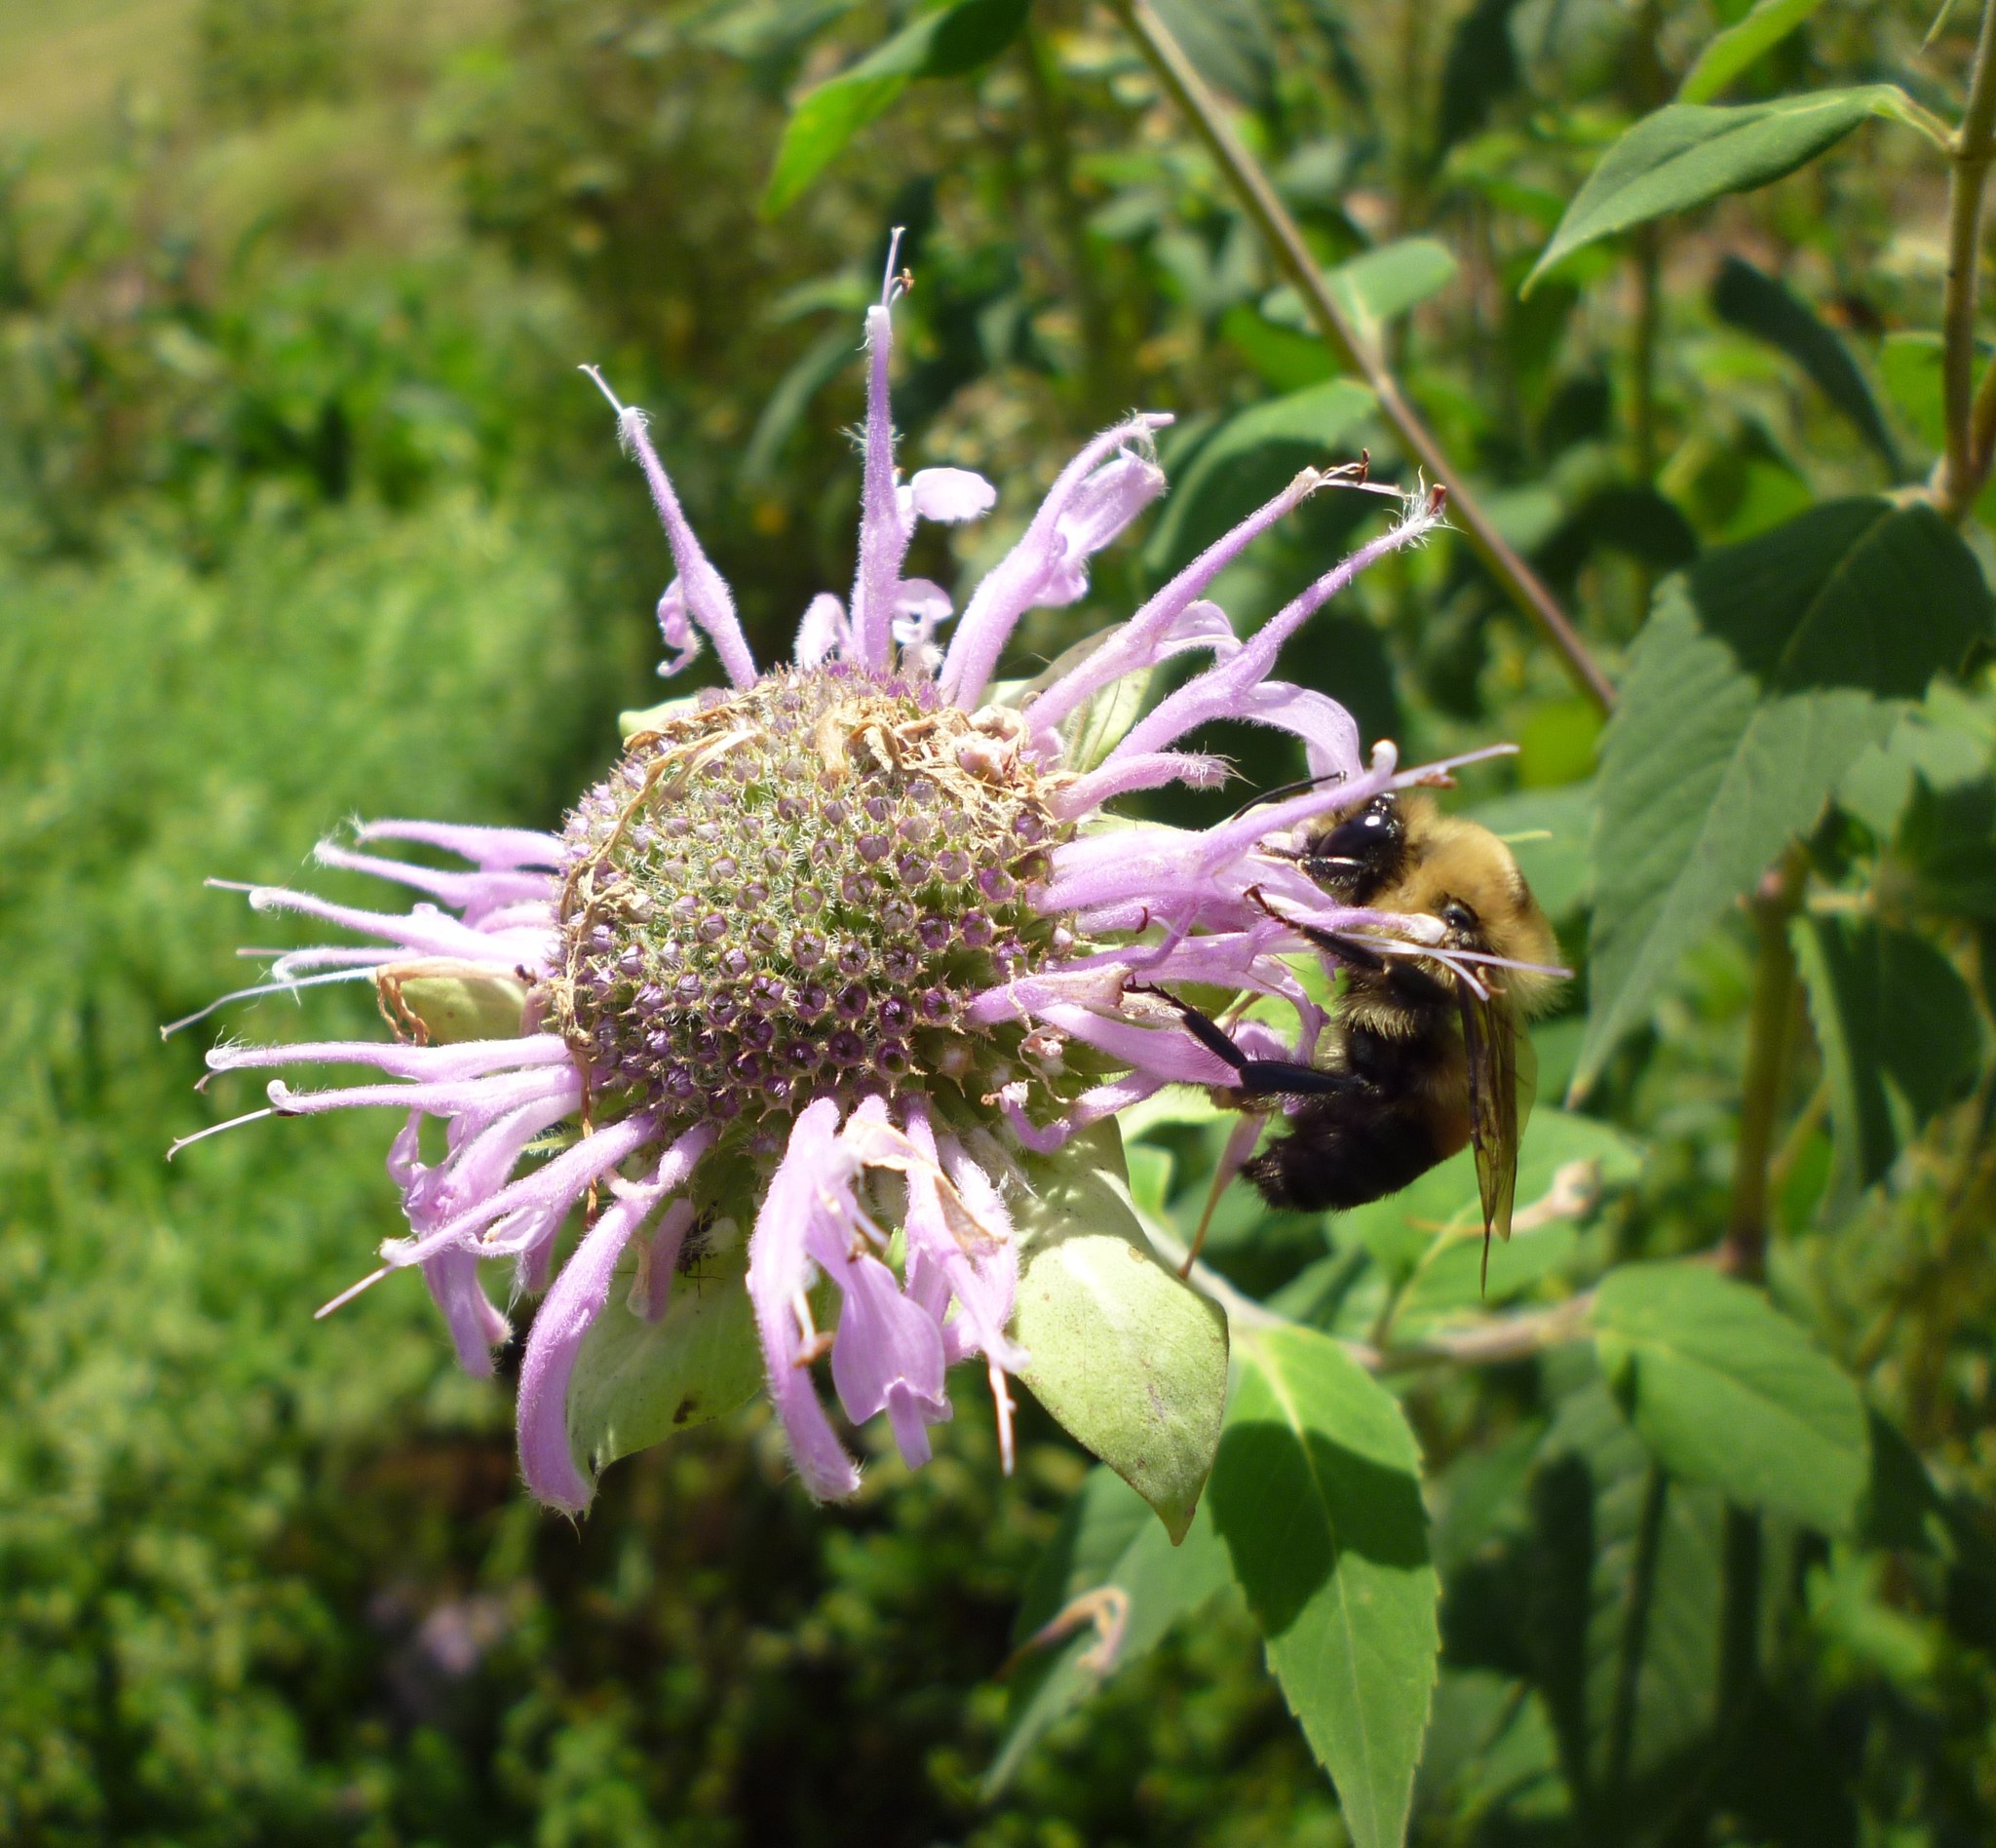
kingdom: Plantae
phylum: Tracheophyta
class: Magnoliopsida
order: Lamiales
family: Lamiaceae
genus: Monarda
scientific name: Monarda fistulosa
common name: Purple beebalm
